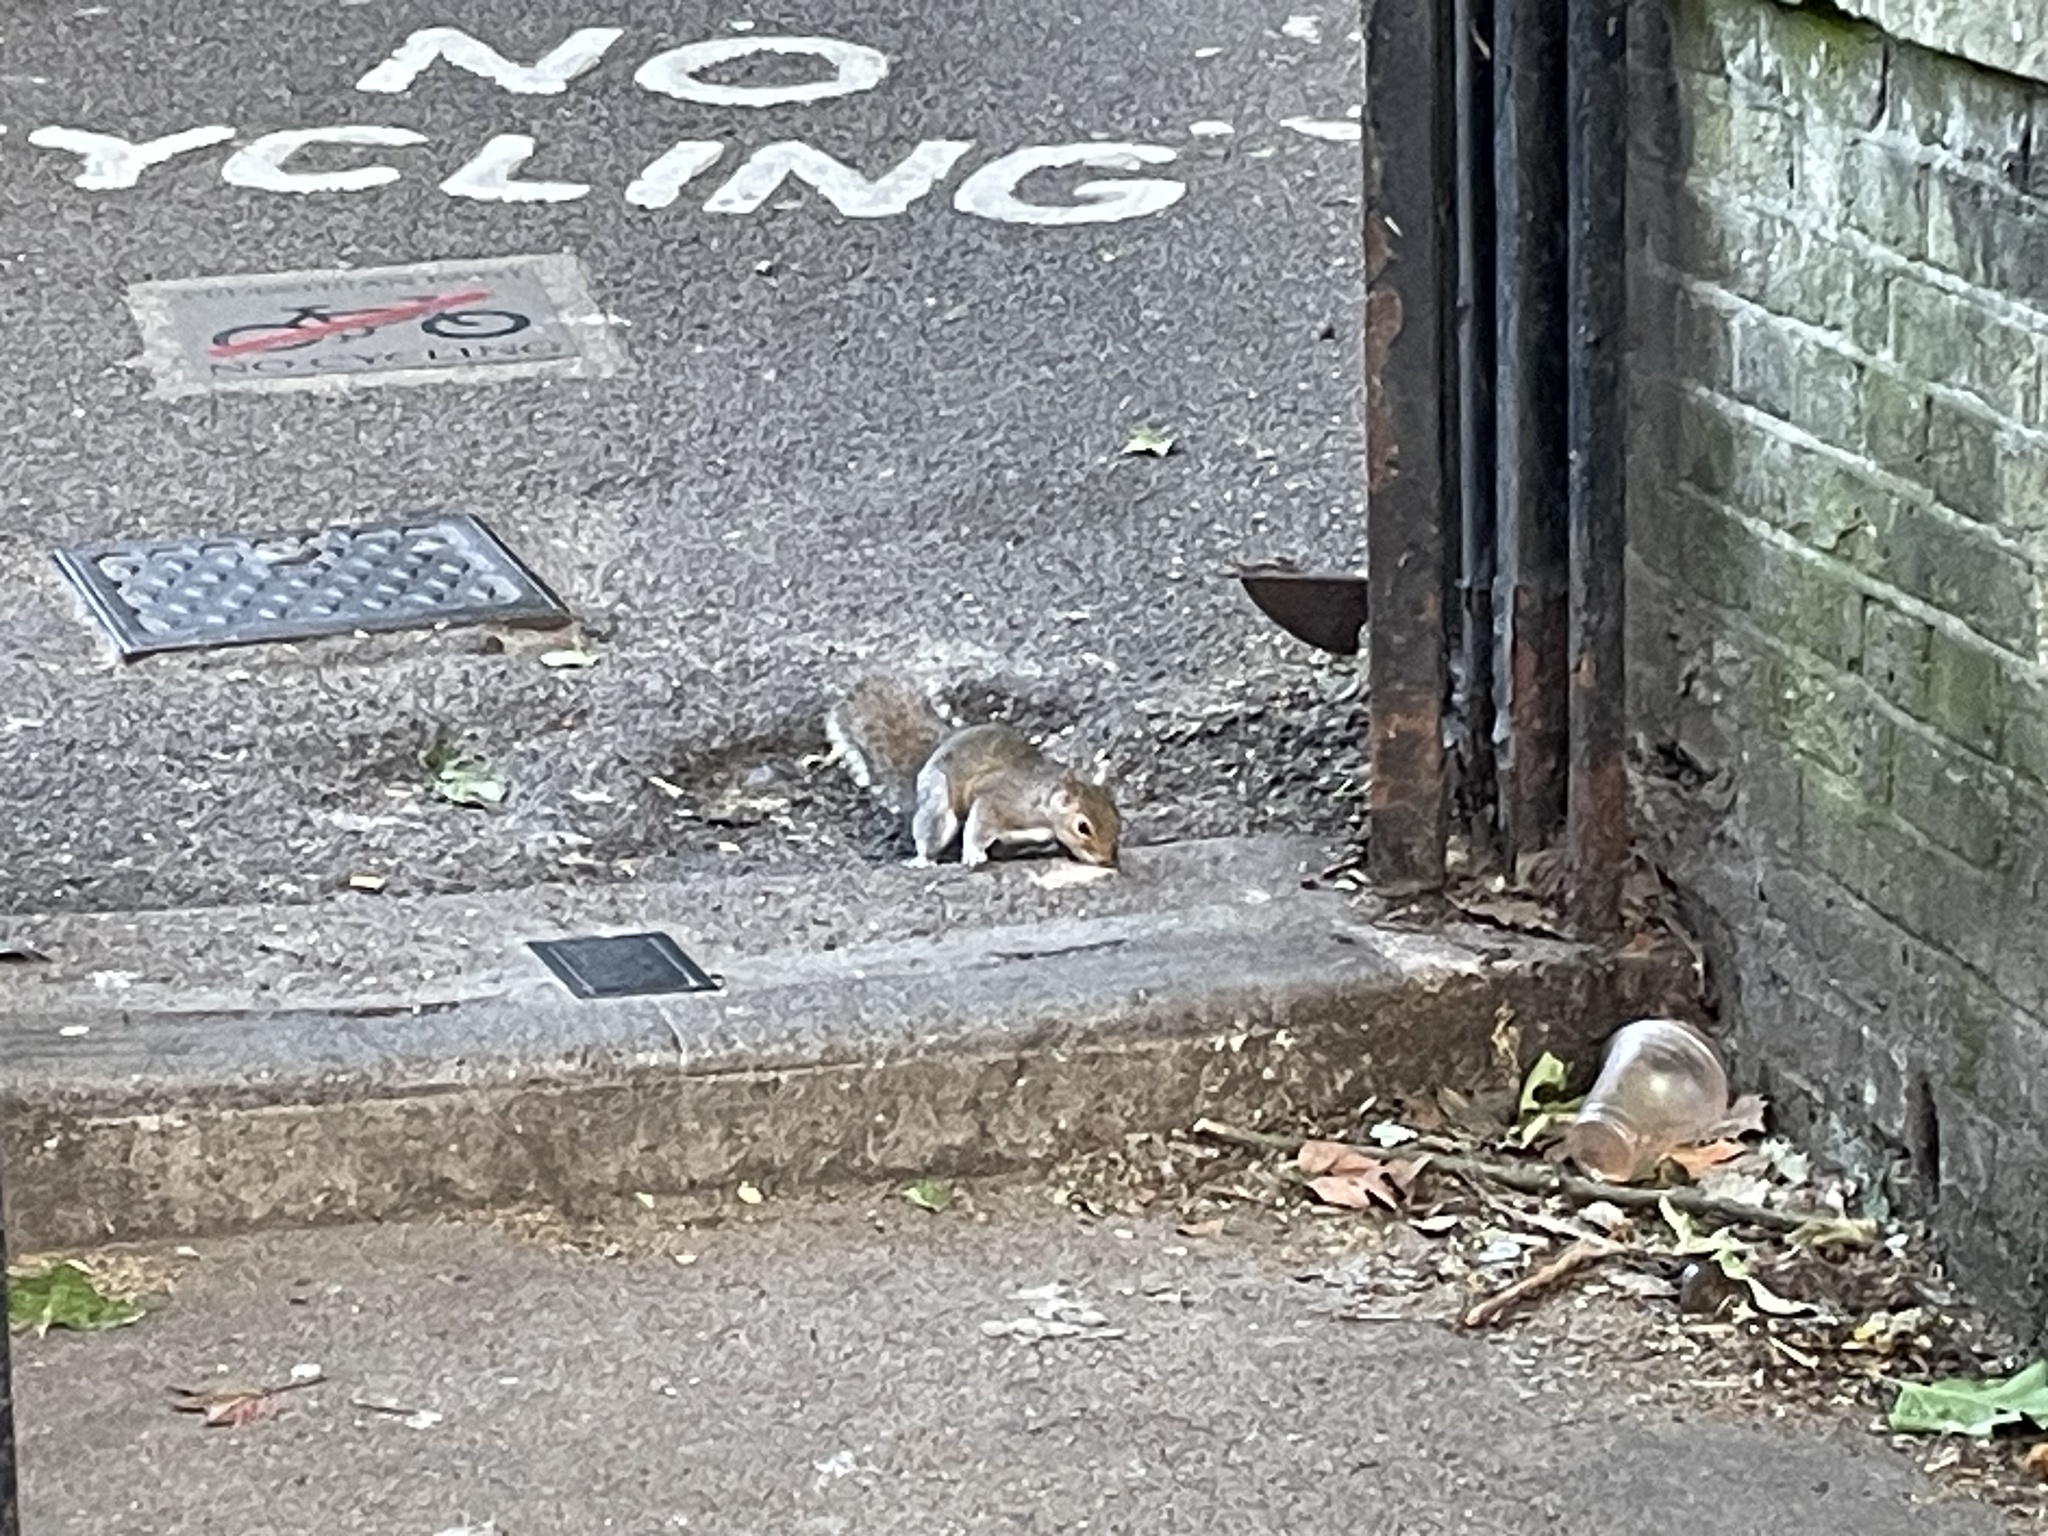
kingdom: Animalia
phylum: Chordata
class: Mammalia
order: Rodentia
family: Sciuridae
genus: Sciurus
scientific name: Sciurus carolinensis
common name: Eastern gray squirrel
